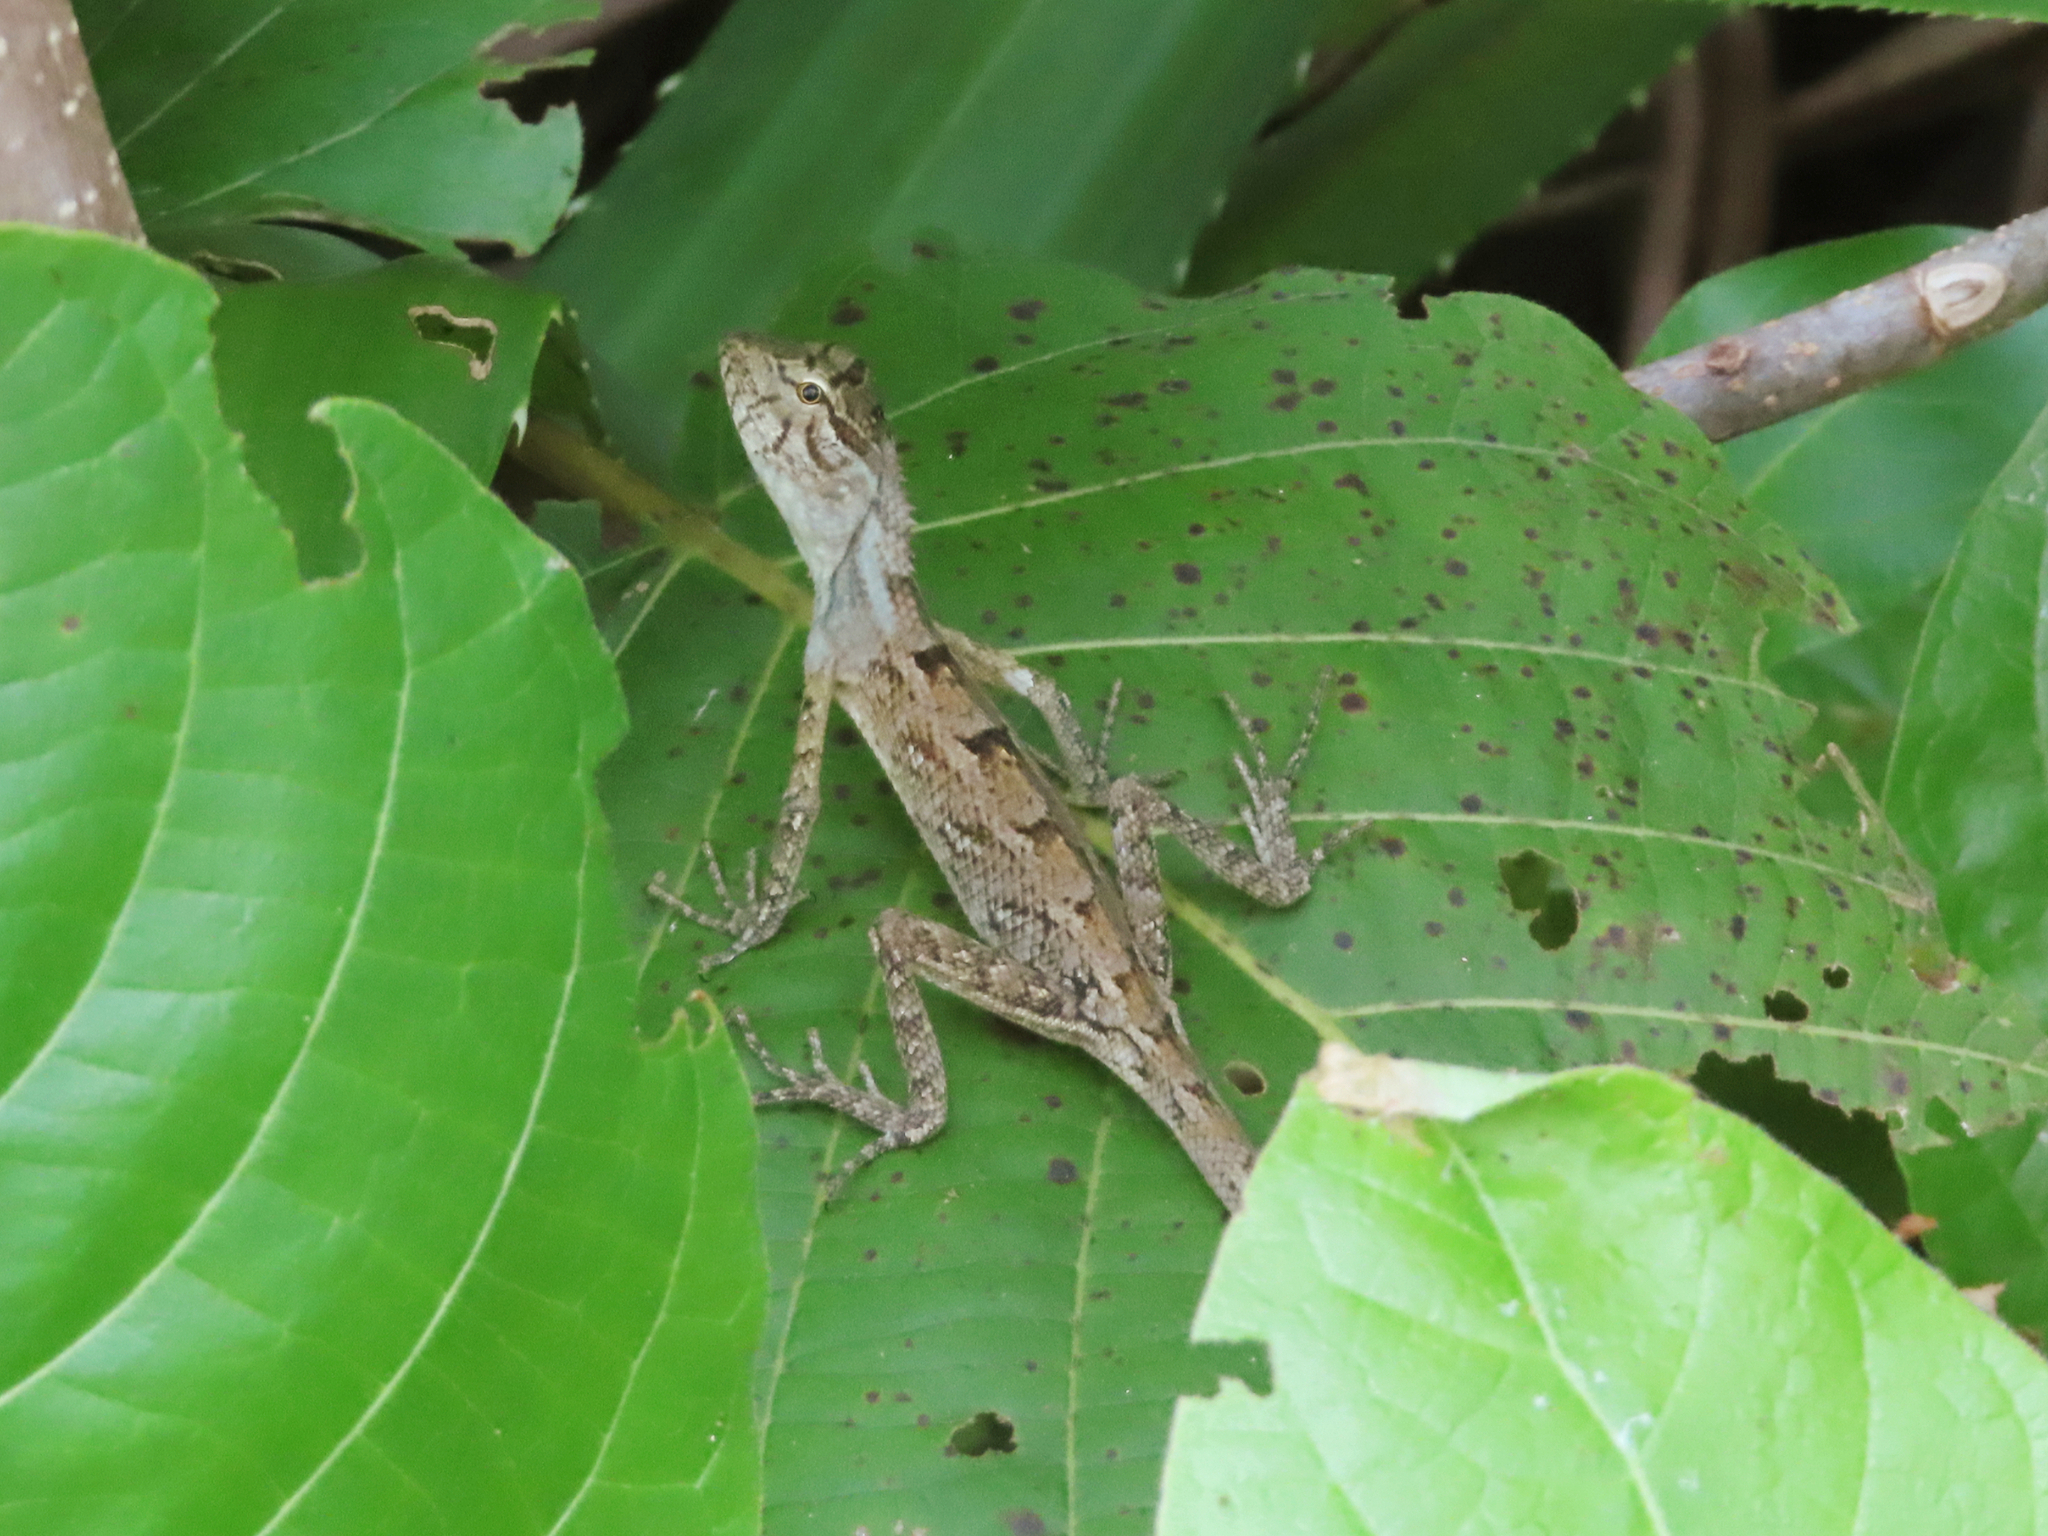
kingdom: Animalia
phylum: Chordata
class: Squamata
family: Agamidae
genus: Calotes
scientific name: Calotes versicolor
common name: Oriental garden lizard
